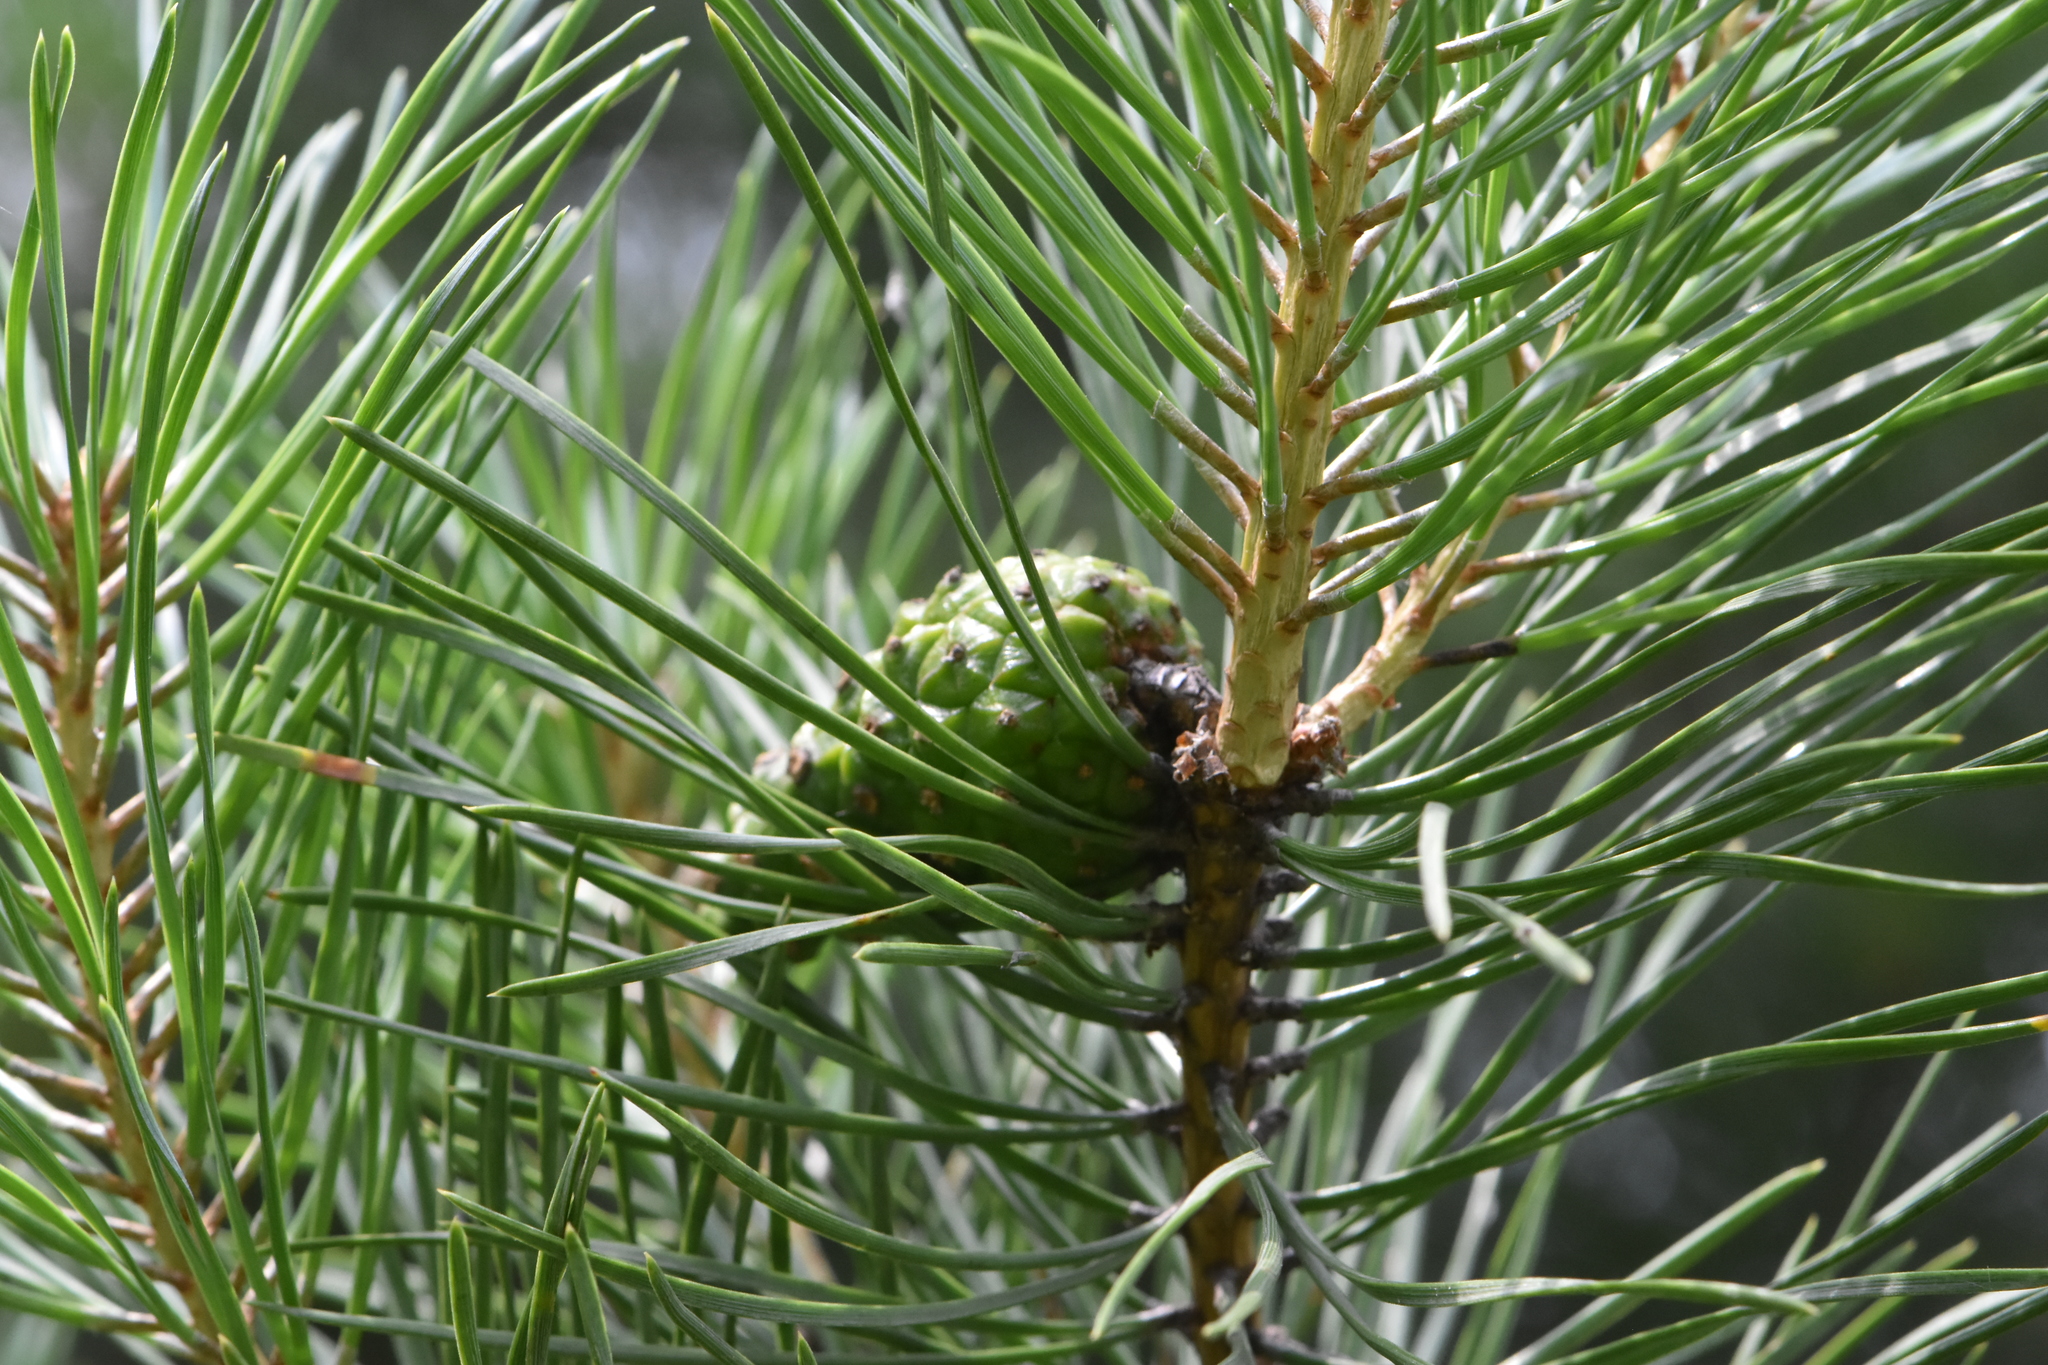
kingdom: Plantae
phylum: Tracheophyta
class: Pinopsida
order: Pinales
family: Pinaceae
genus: Pinus
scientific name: Pinus sylvestris
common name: Scots pine
